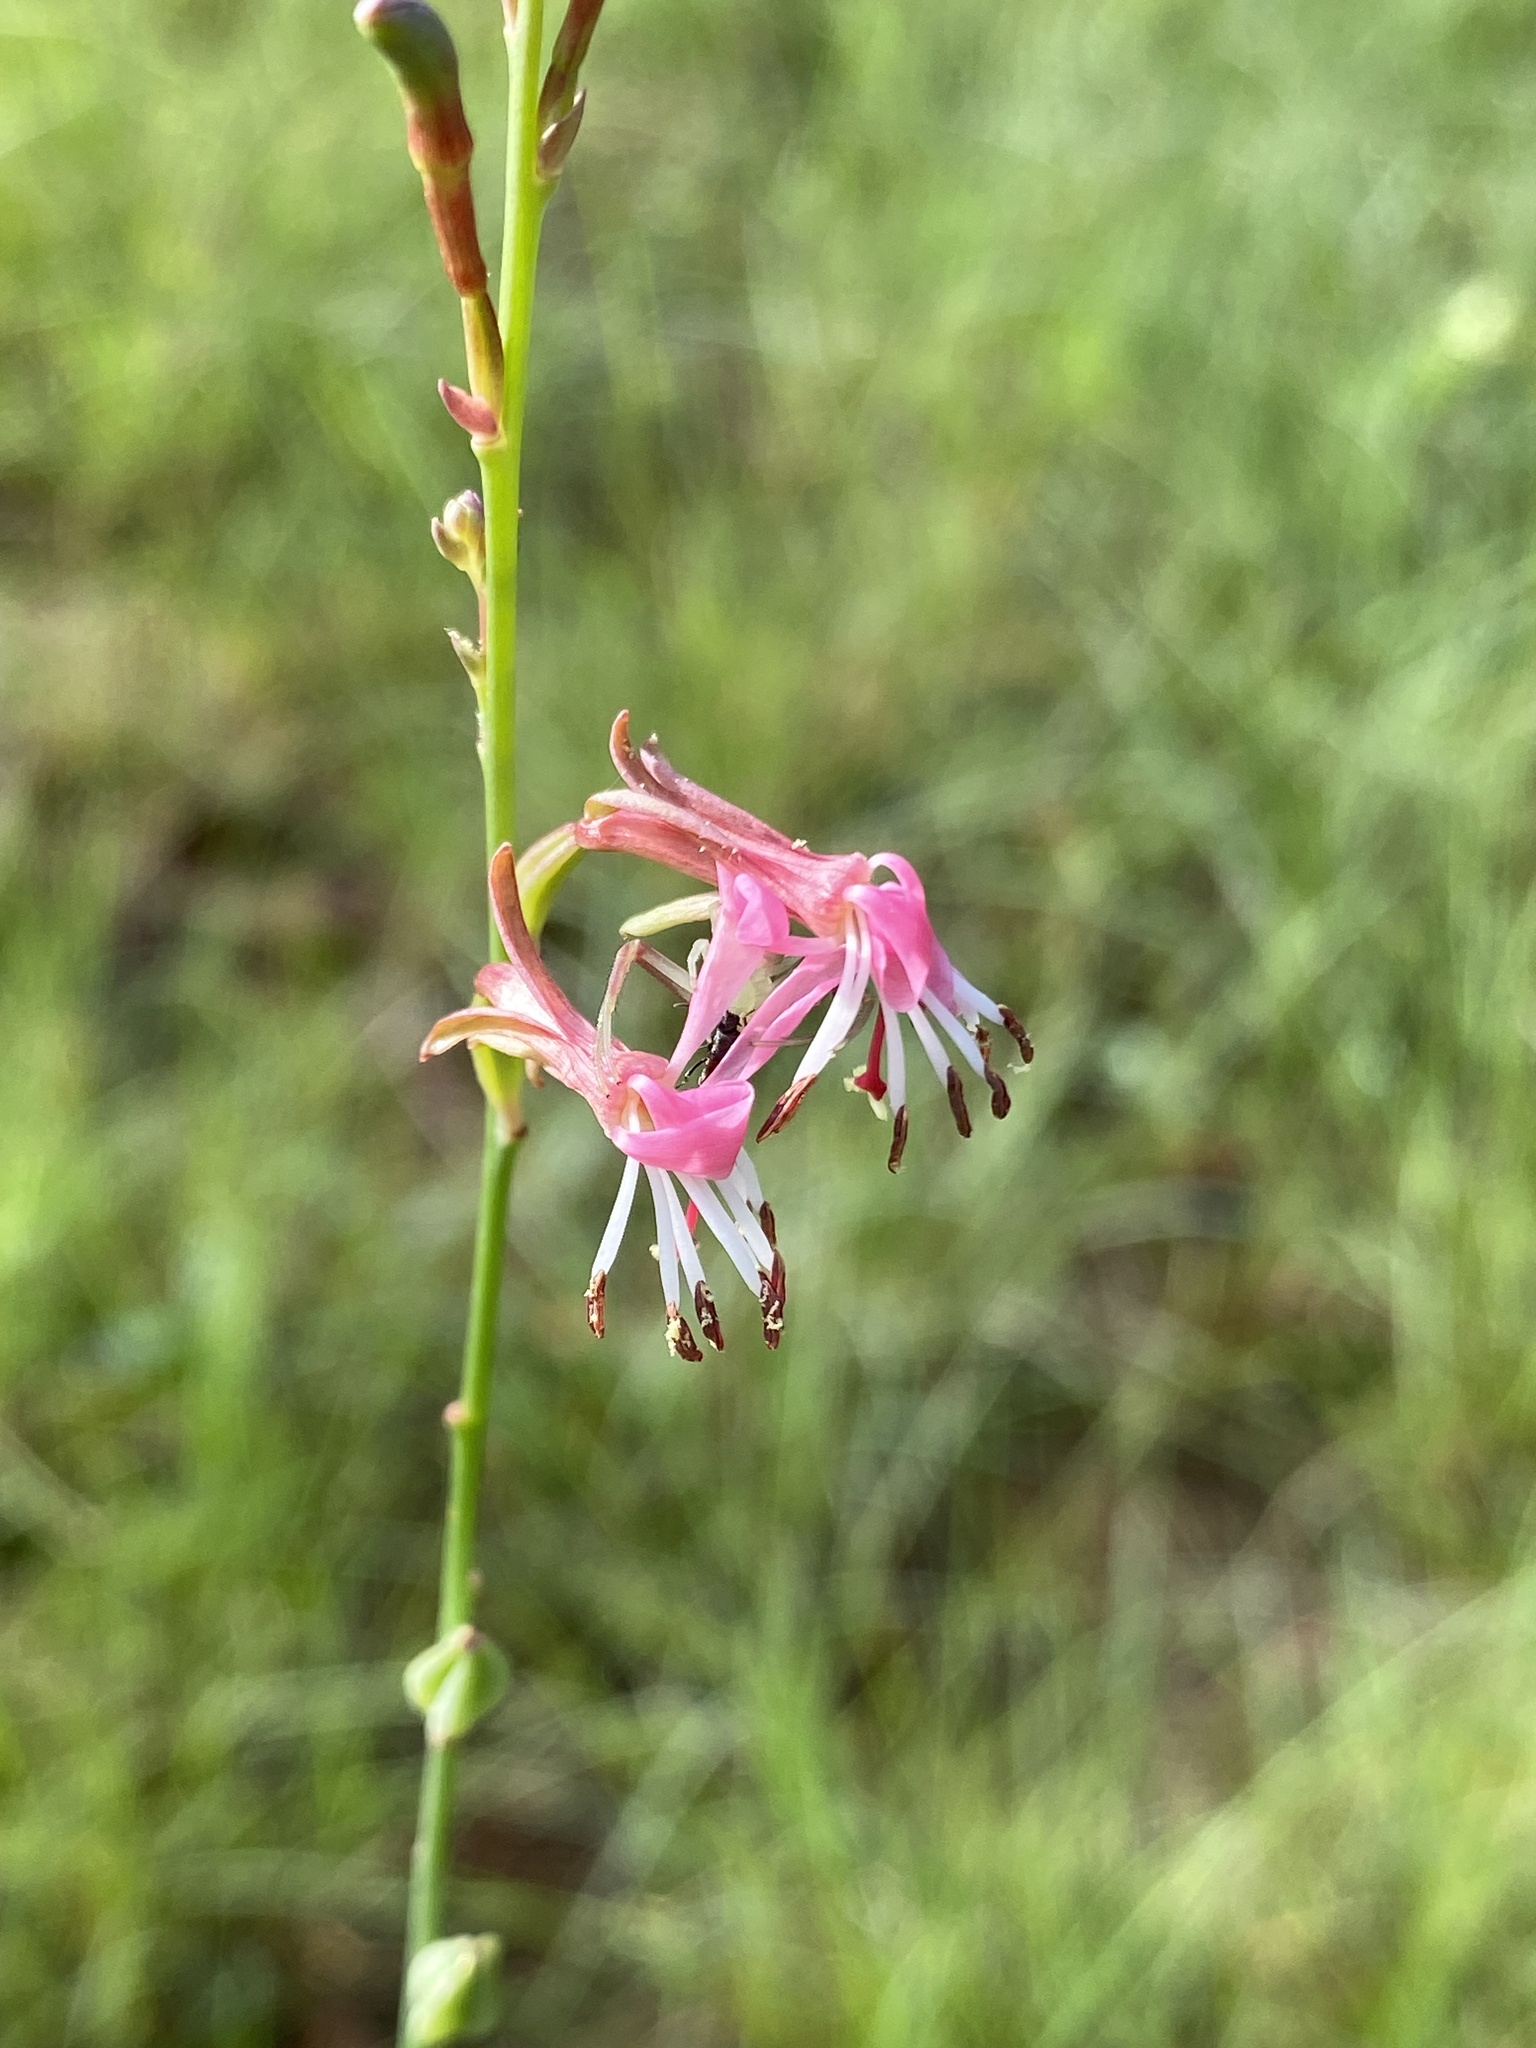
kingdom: Plantae
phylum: Tracheophyta
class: Magnoliopsida
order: Myrtales
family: Onagraceae
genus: Oenothera
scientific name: Oenothera podocarpa
